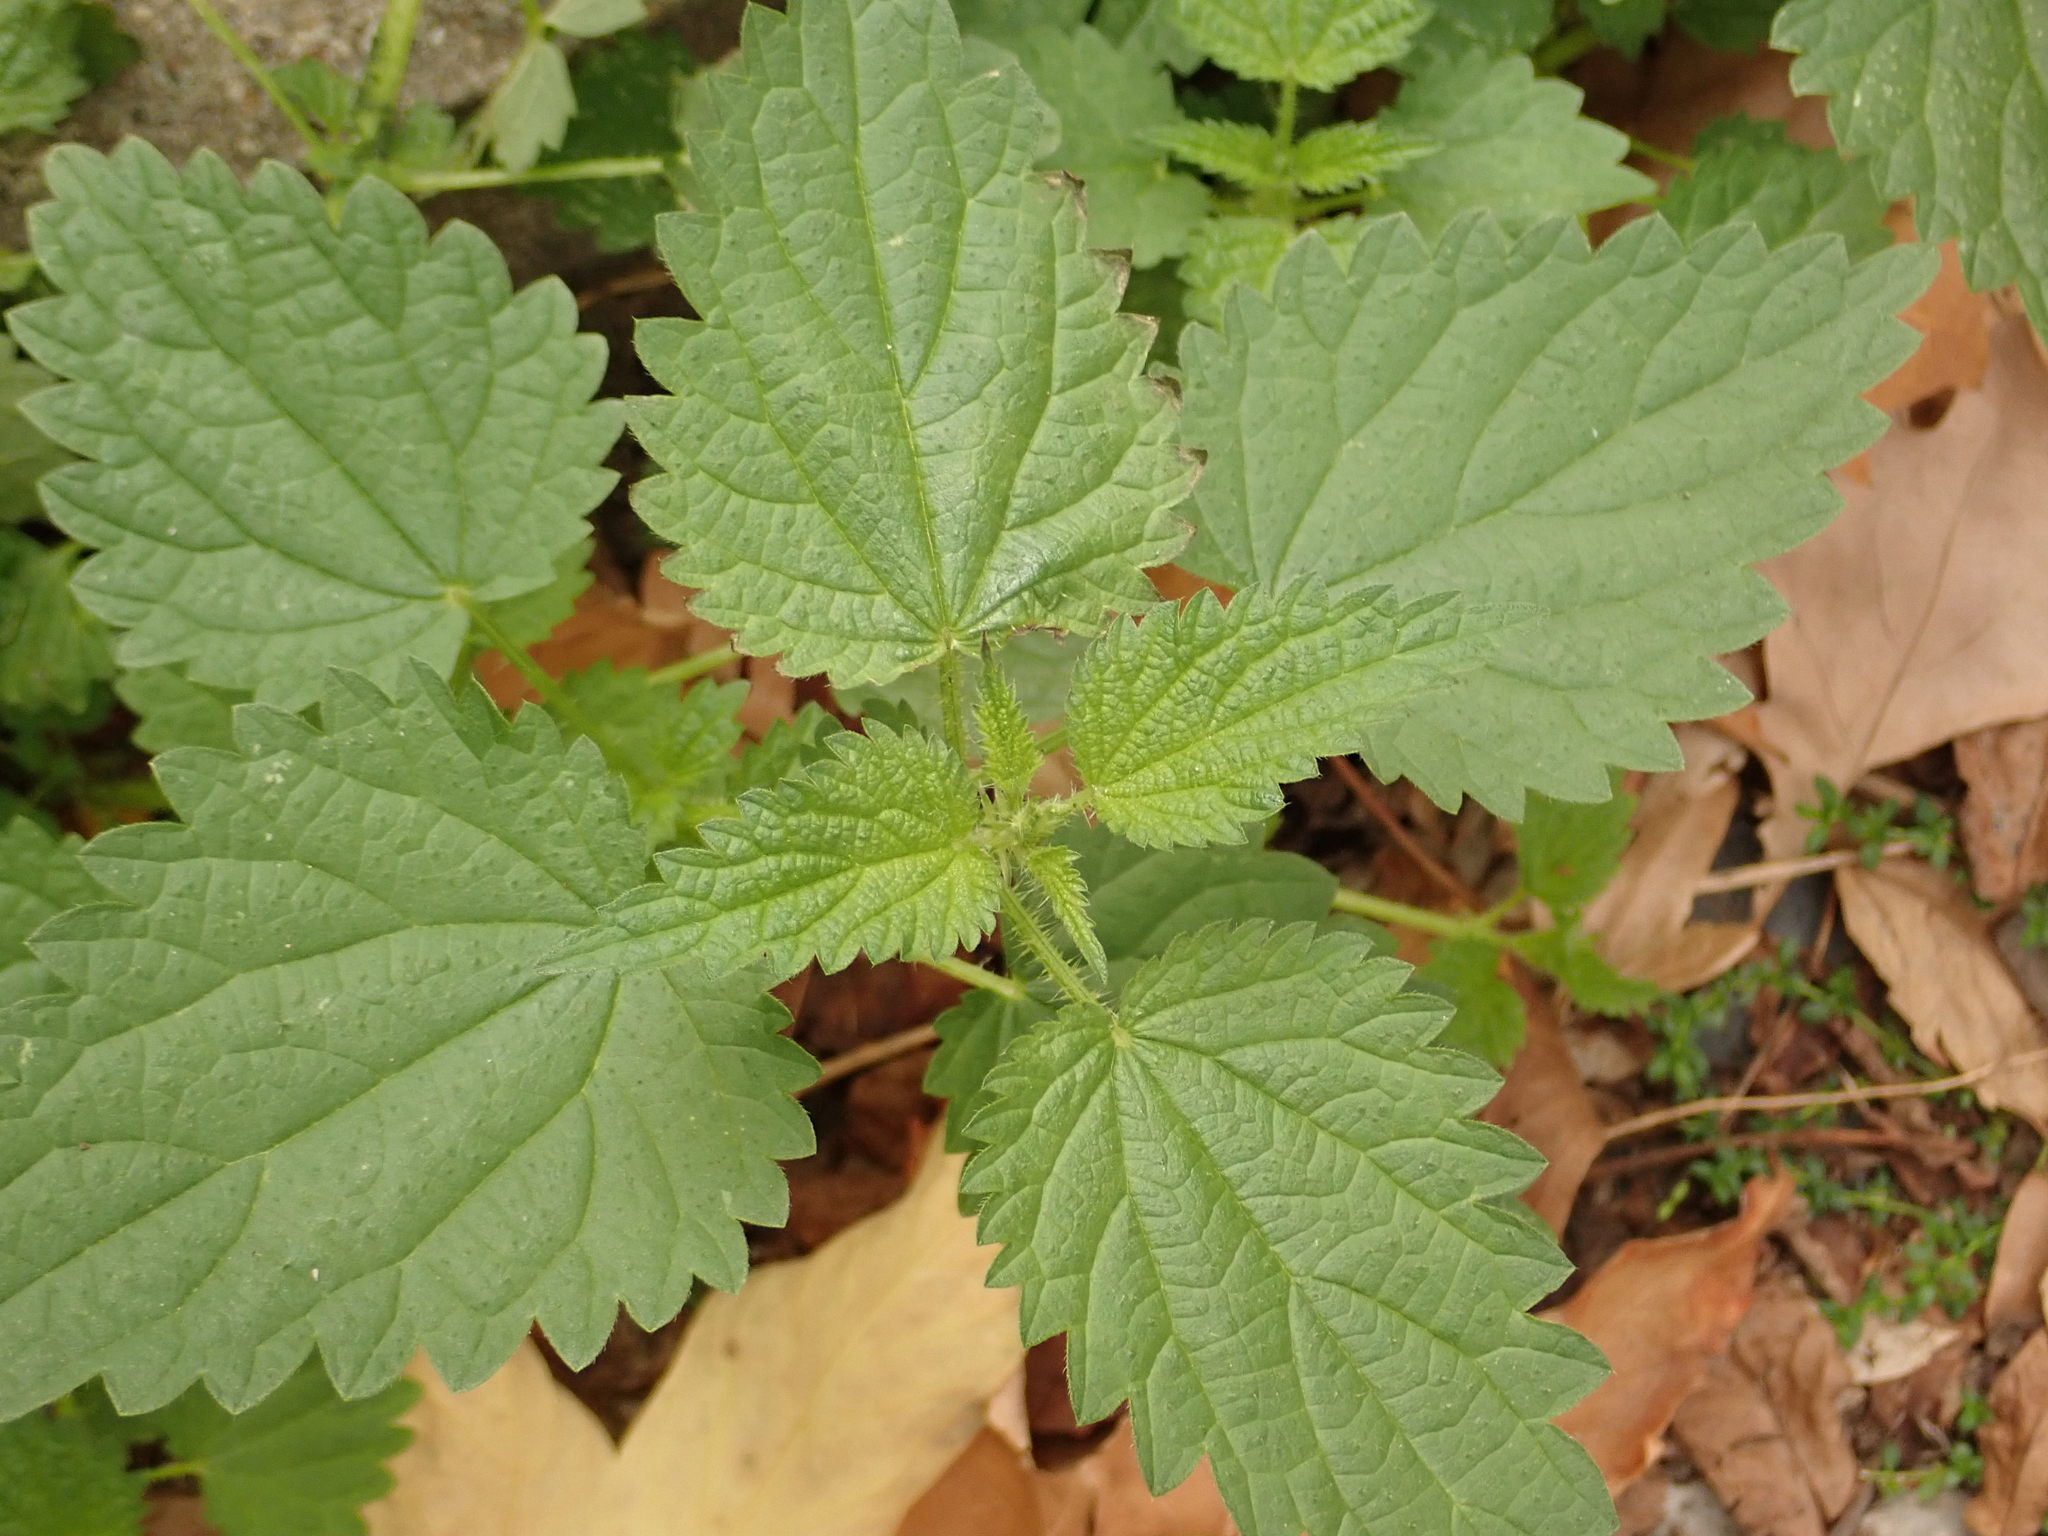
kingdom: Plantae
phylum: Tracheophyta
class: Magnoliopsida
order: Rosales
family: Urticaceae
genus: Urtica
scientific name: Urtica dioica
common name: Common nettle
